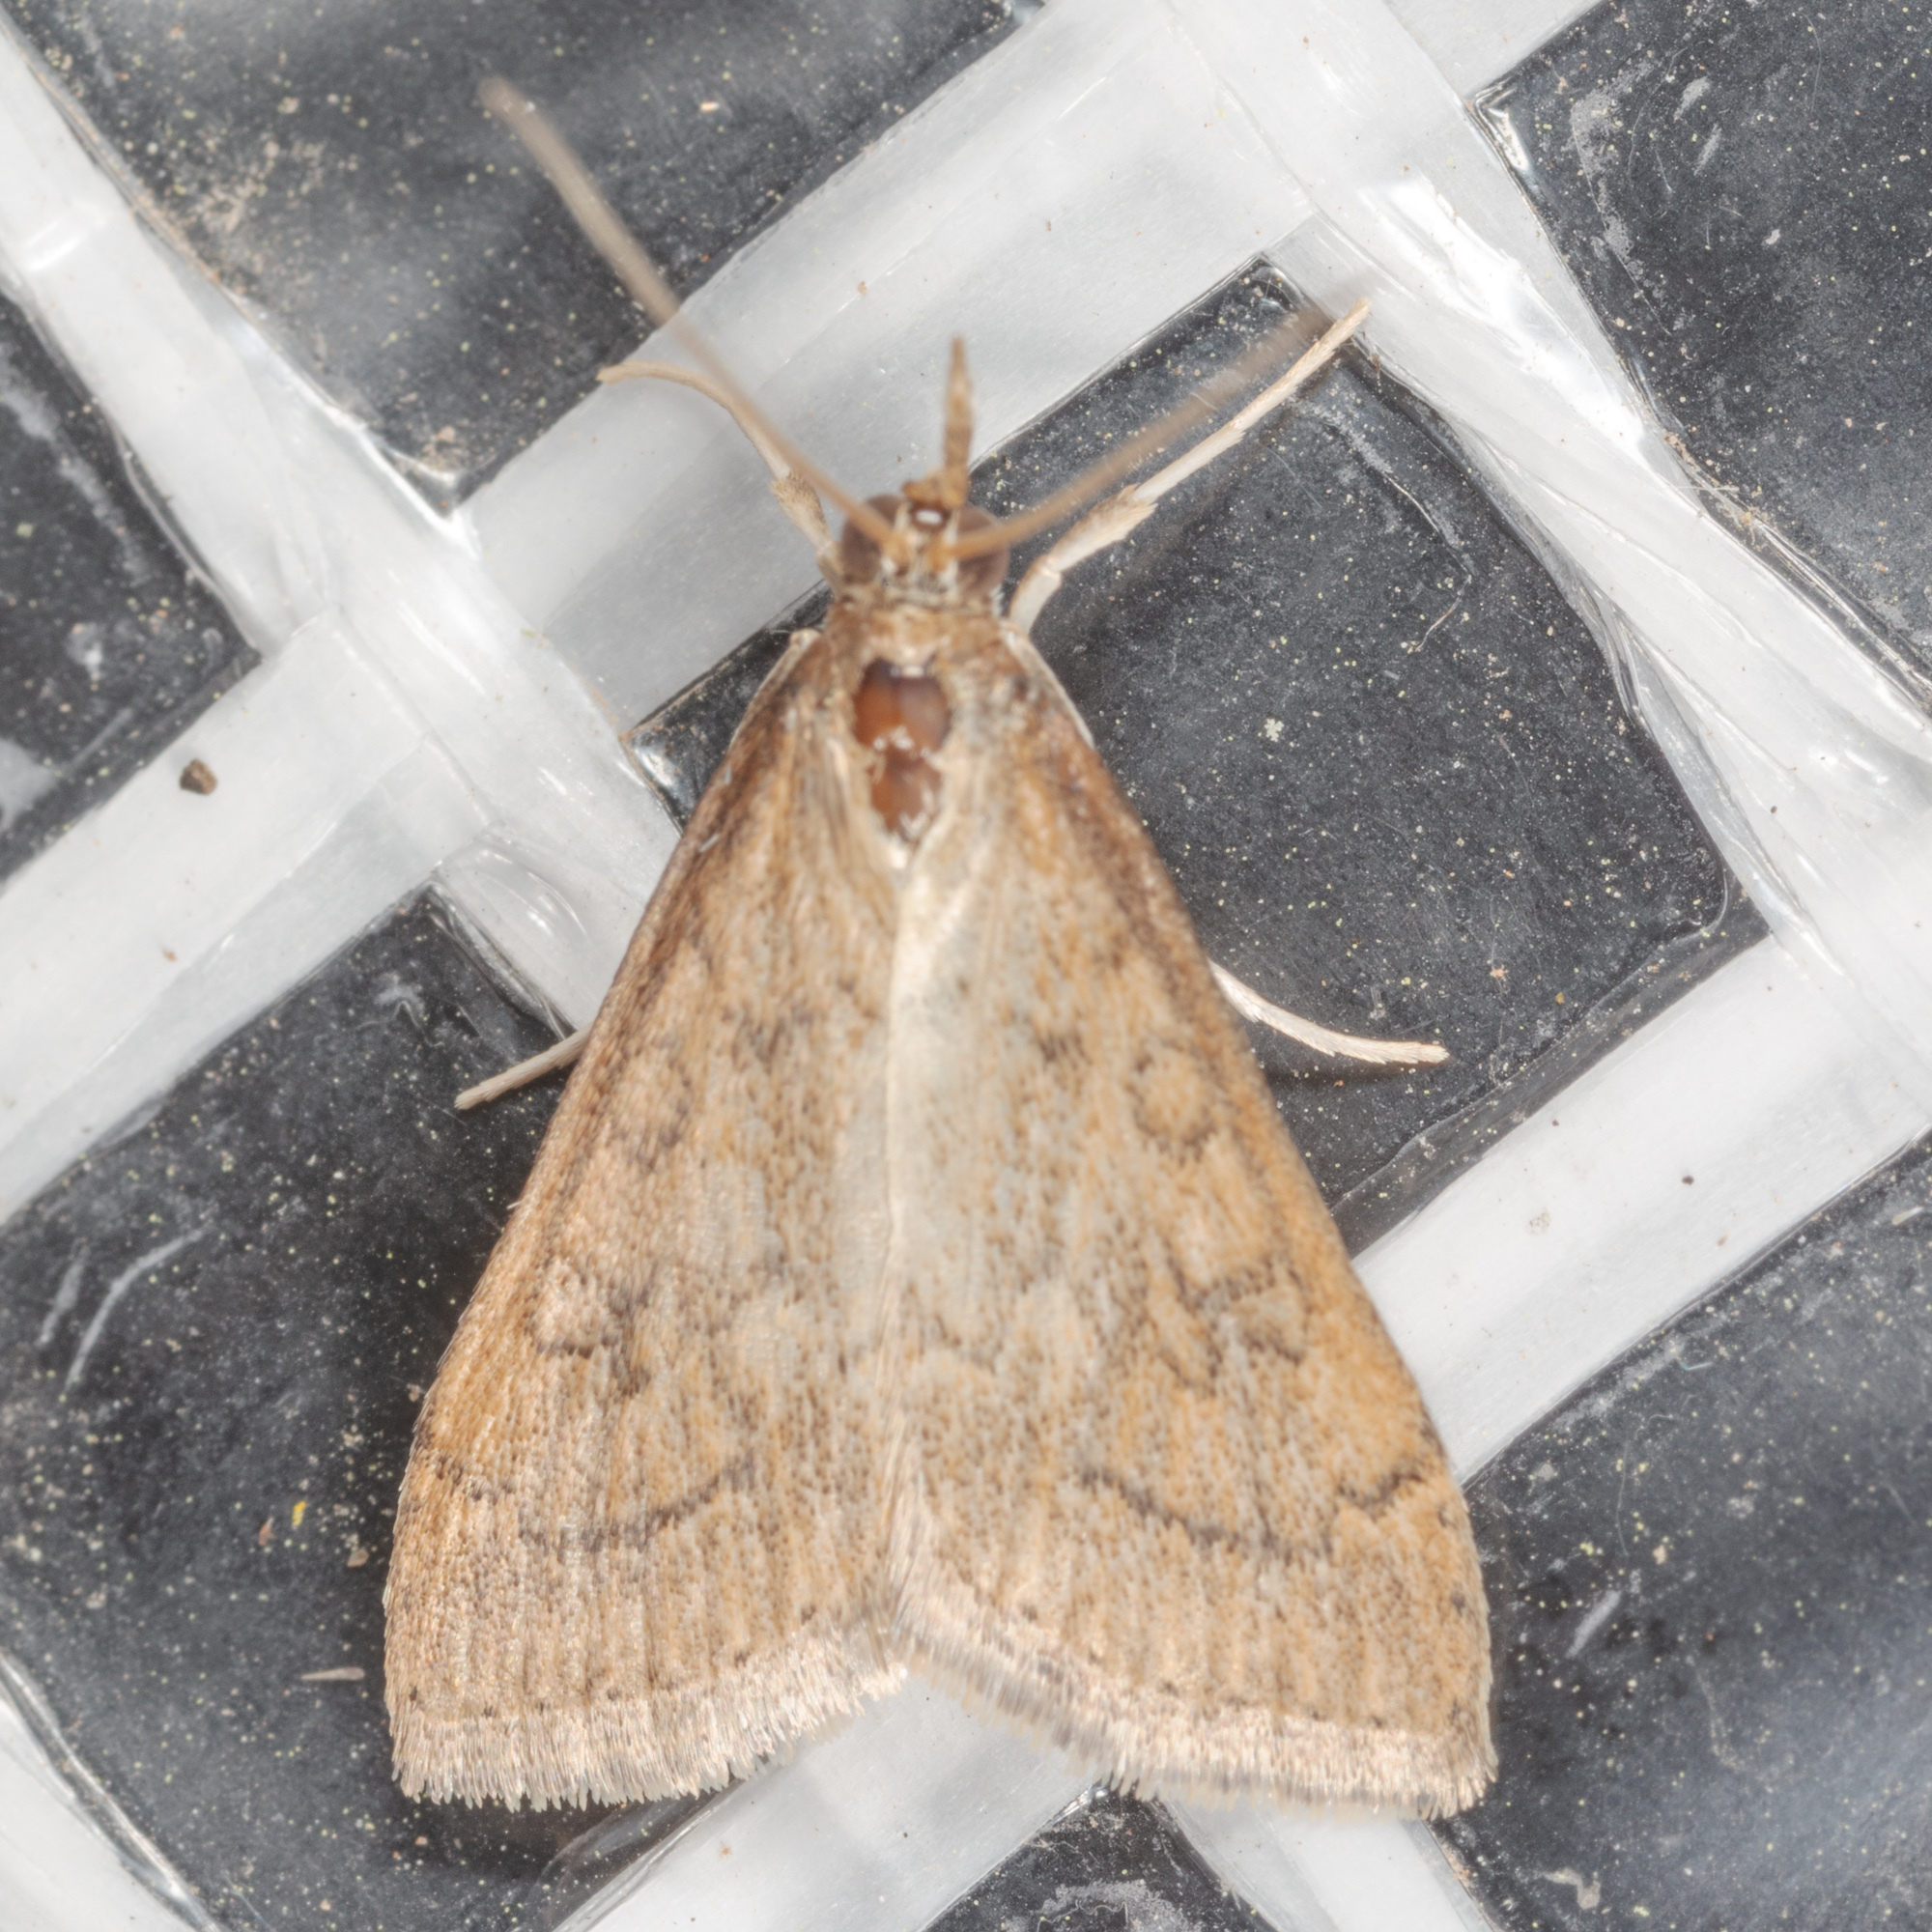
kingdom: Animalia
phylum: Arthropoda
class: Insecta
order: Lepidoptera
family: Crambidae
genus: Udea
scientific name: Udea rubigalis
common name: Celery leaftier moth
